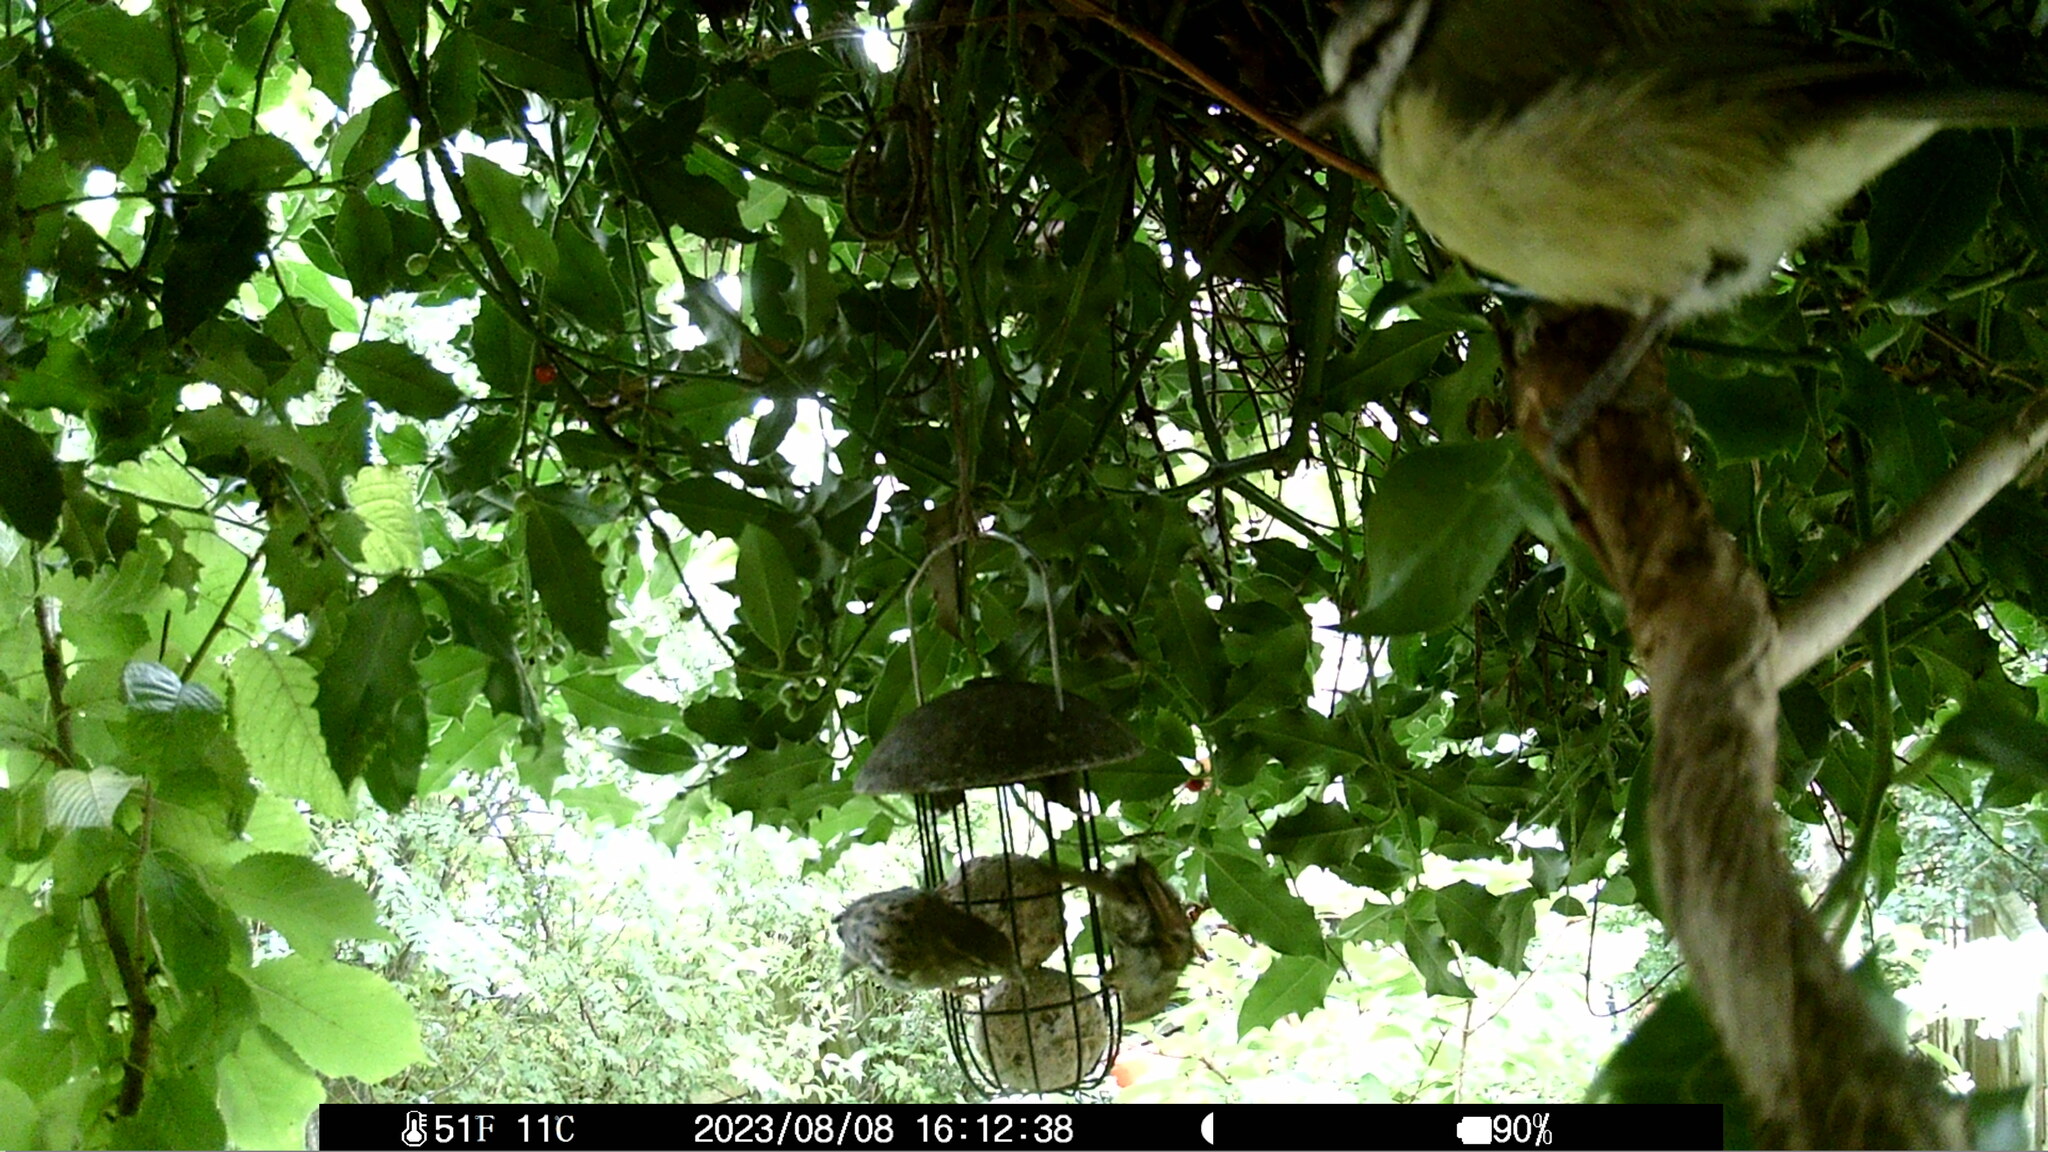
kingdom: Animalia
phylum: Chordata
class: Aves
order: Passeriformes
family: Paridae
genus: Cyanistes
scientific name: Cyanistes caeruleus
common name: Eurasian blue tit
